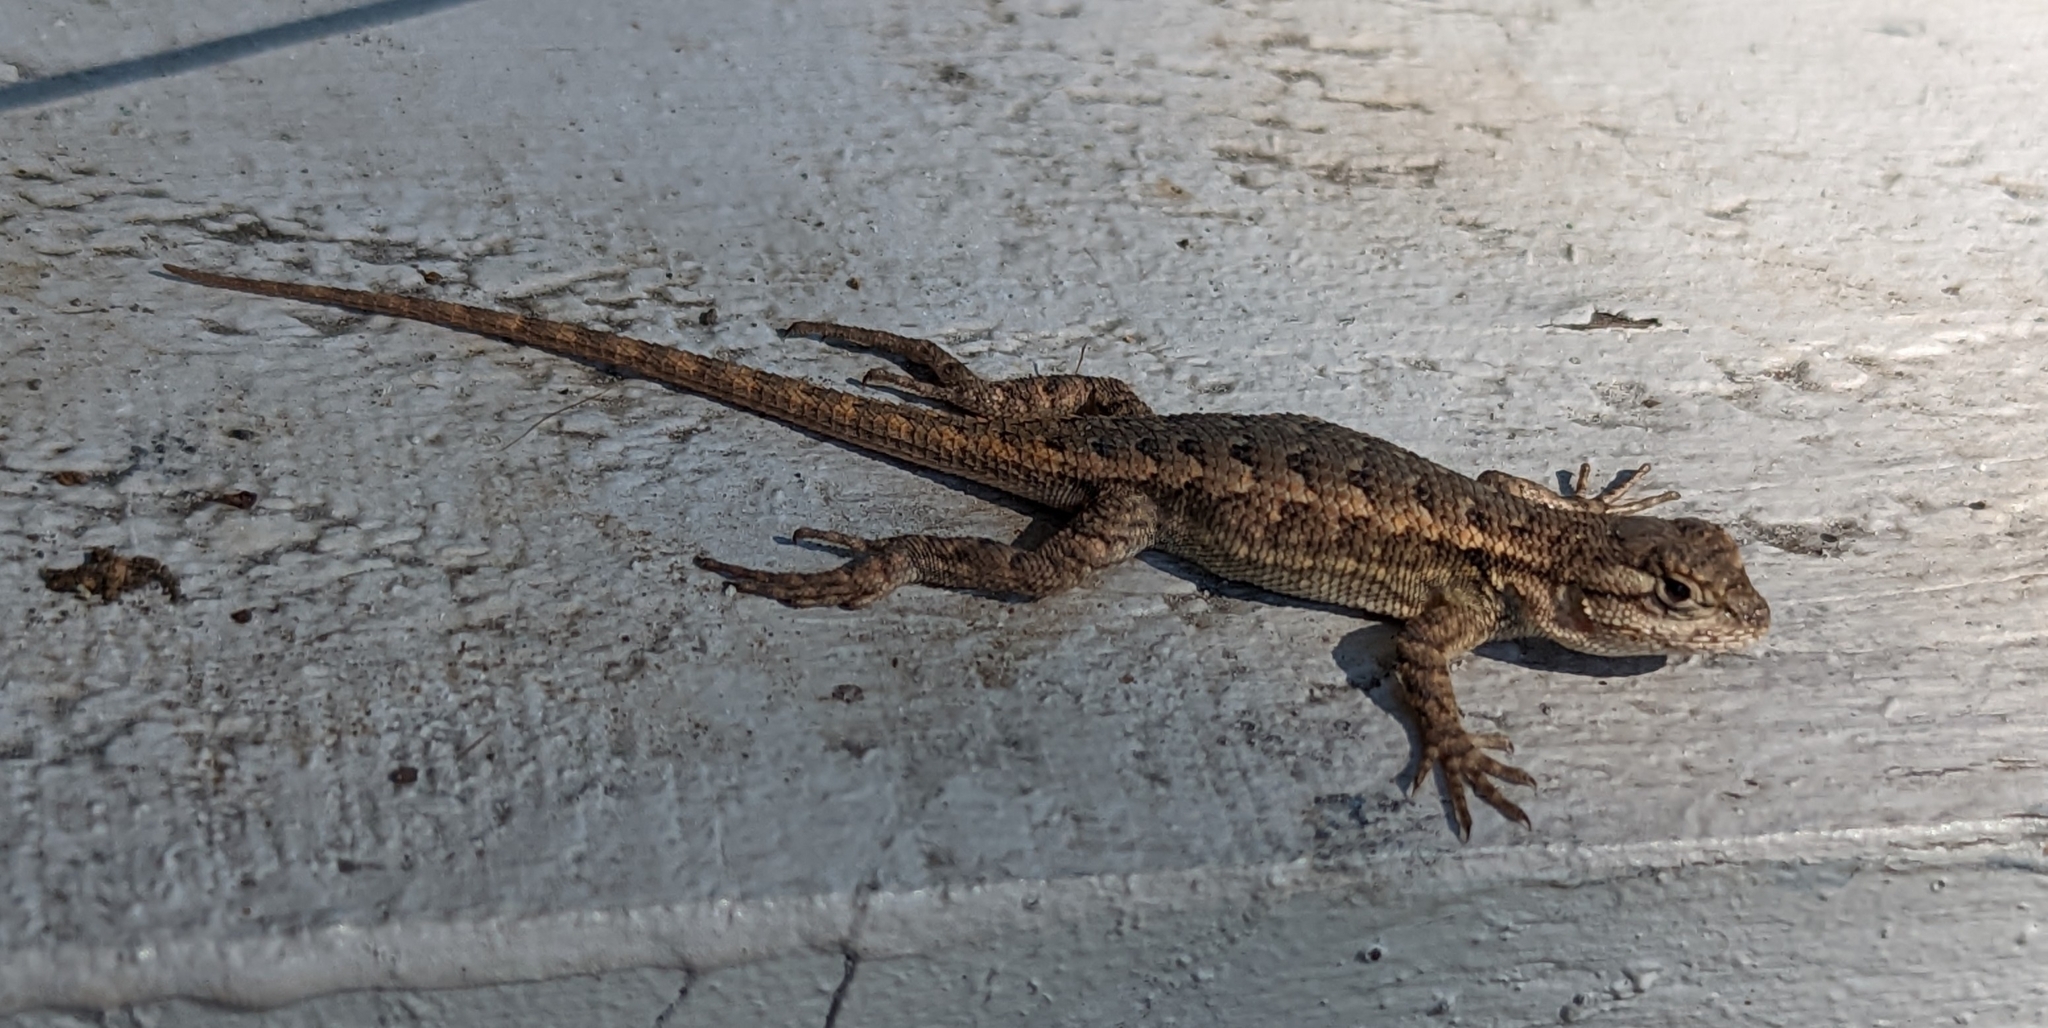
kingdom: Animalia
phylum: Chordata
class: Squamata
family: Phrynosomatidae
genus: Sceloporus
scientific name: Sceloporus occidentalis
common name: Western fence lizard
